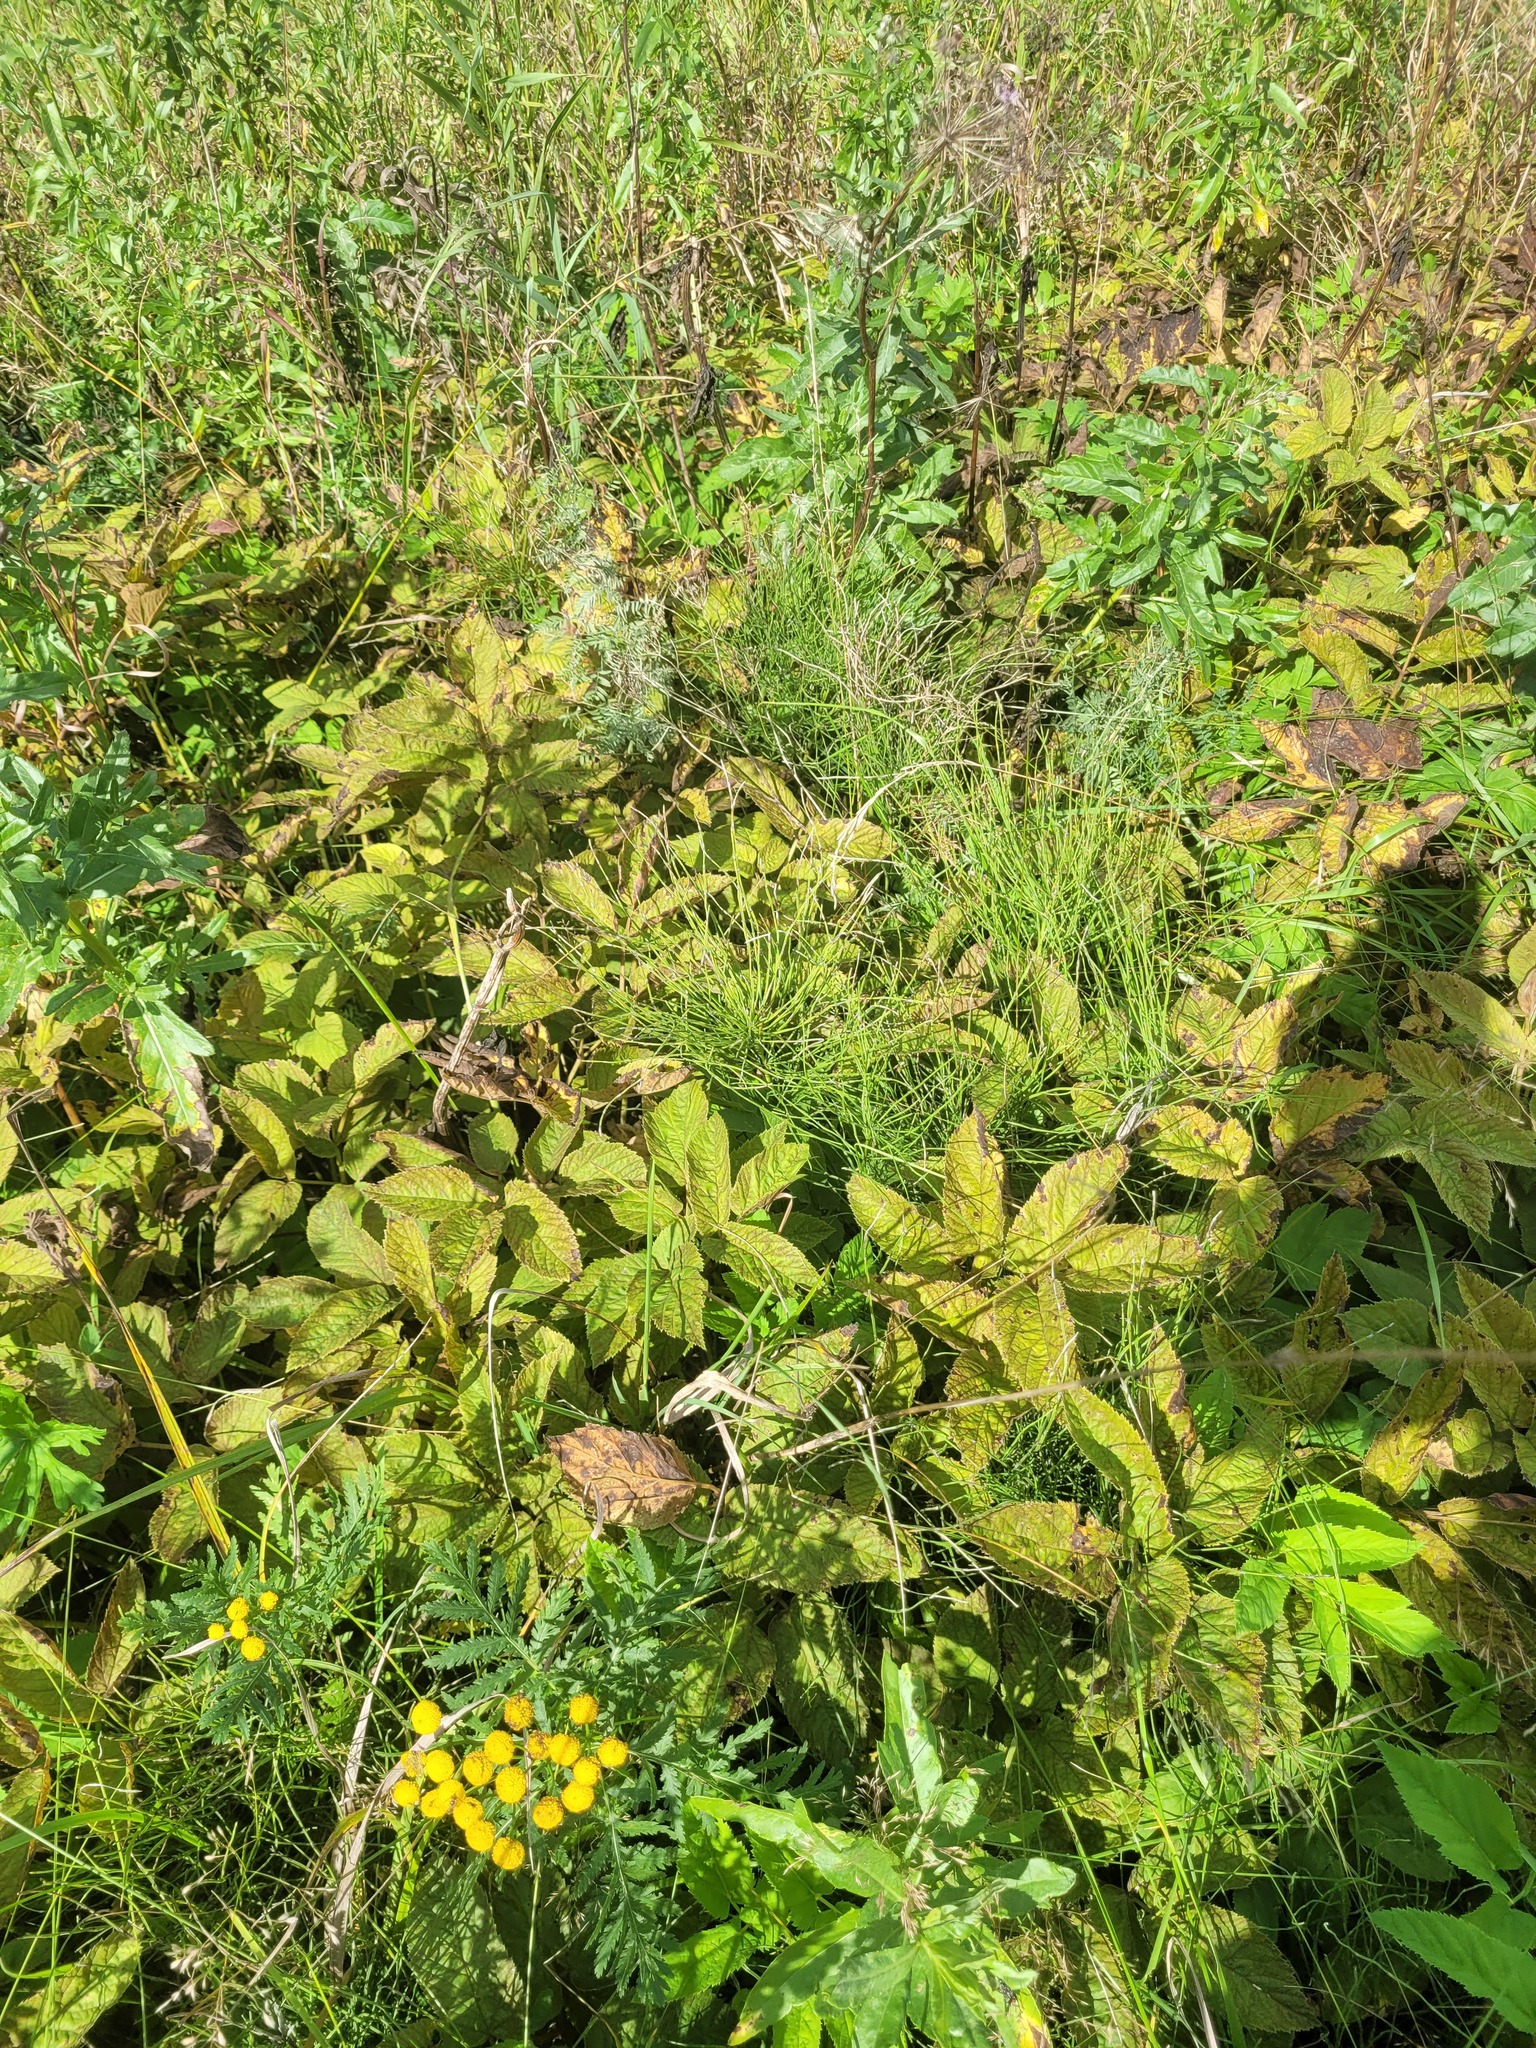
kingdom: Plantae
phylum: Tracheophyta
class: Magnoliopsida
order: Apiales
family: Apiaceae
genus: Aegopodium
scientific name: Aegopodium podagraria
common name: Ground-elder
